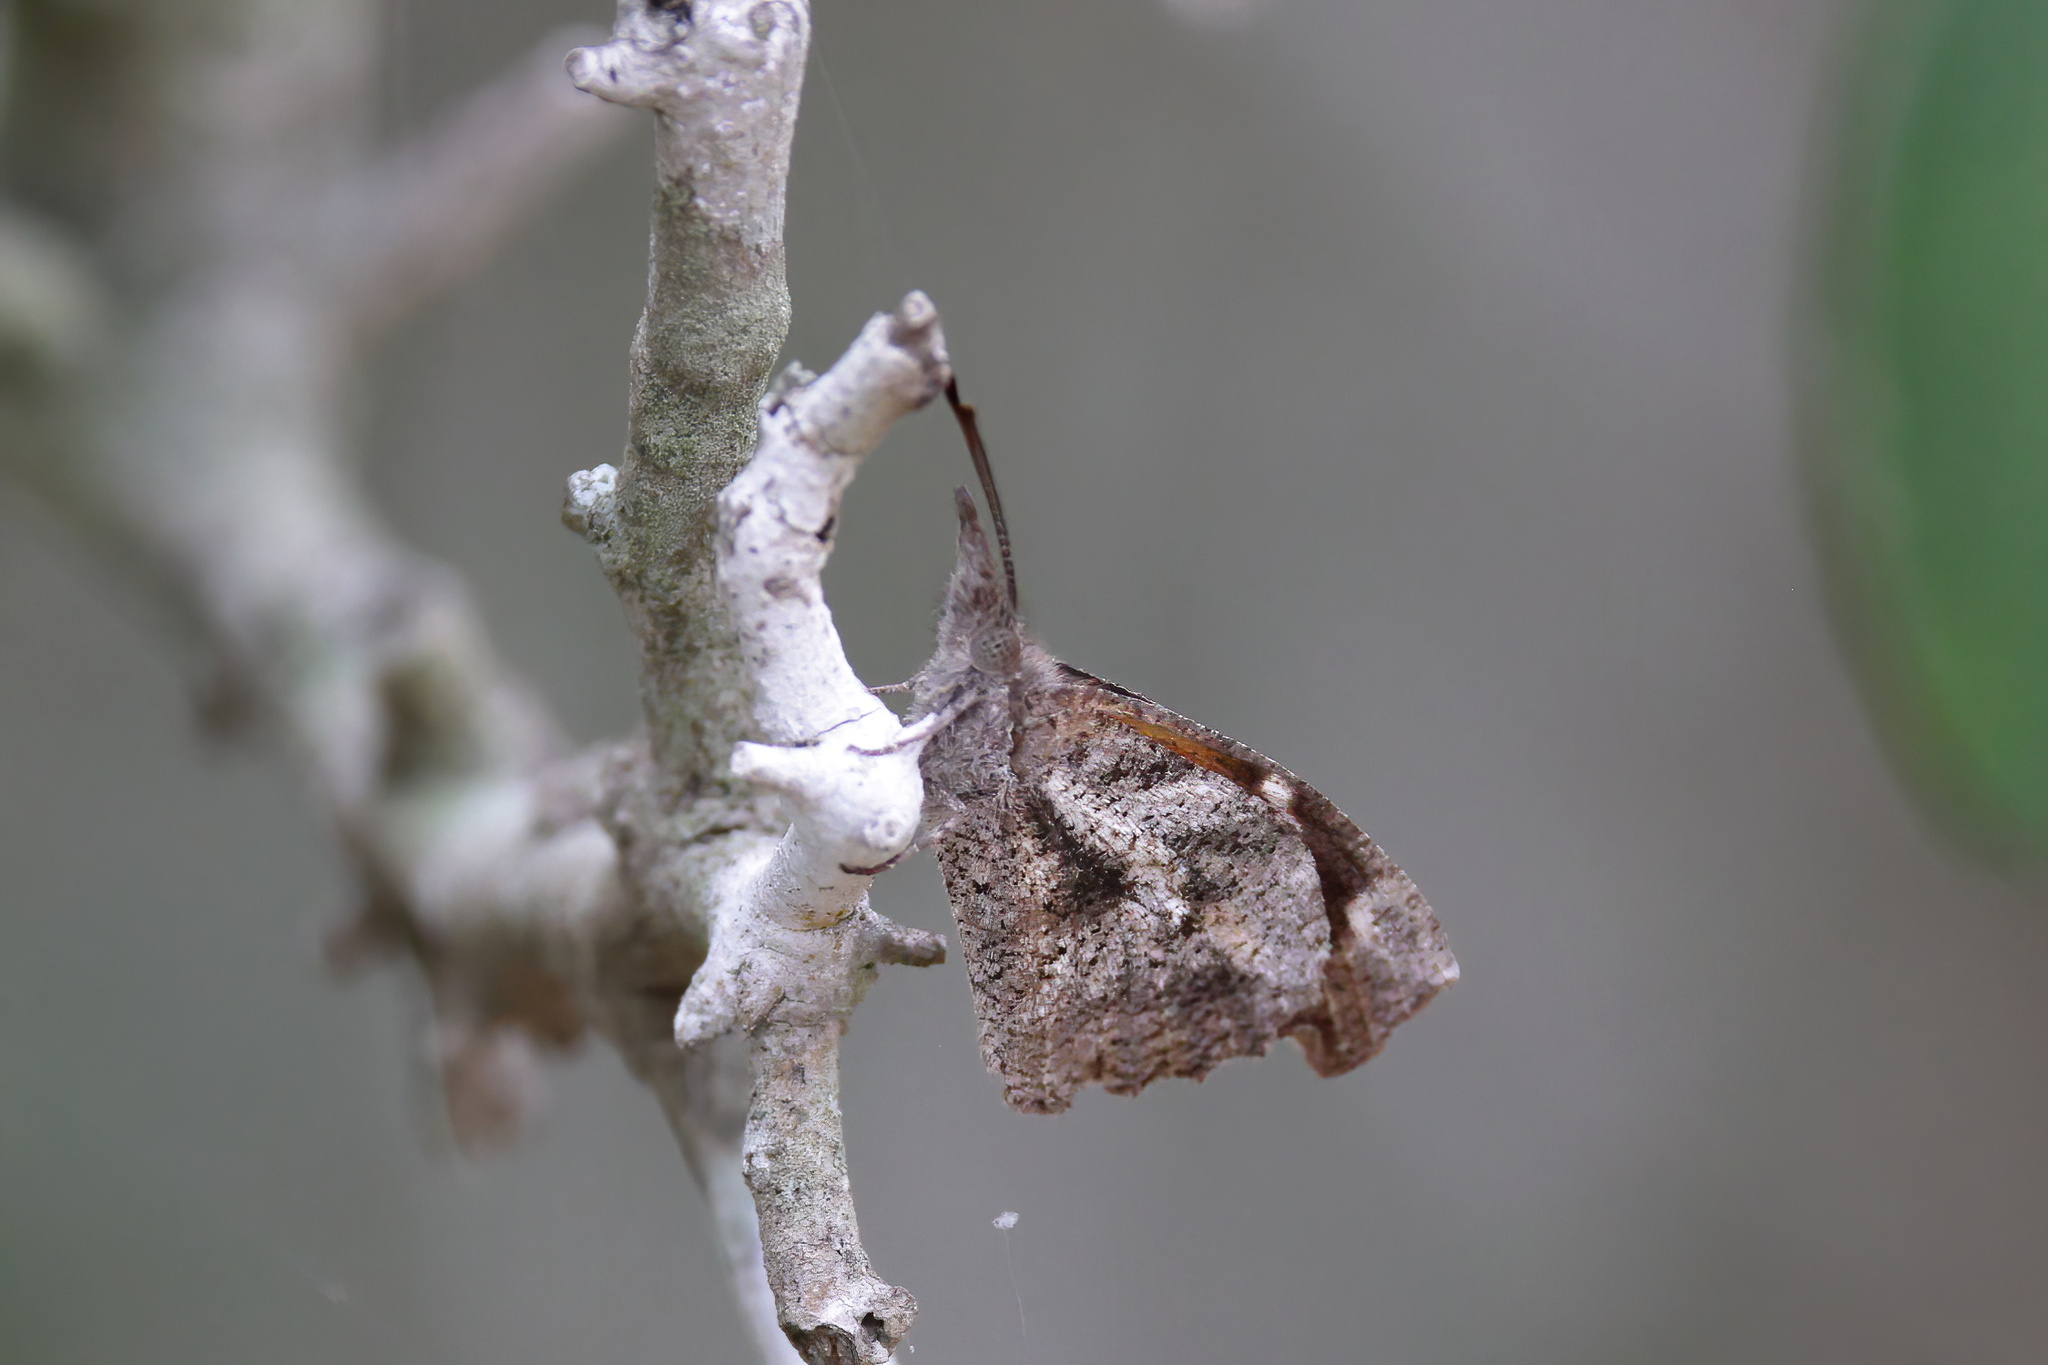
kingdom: Animalia
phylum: Arthropoda
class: Insecta
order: Lepidoptera
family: Nymphalidae
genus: Libytheana
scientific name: Libytheana carinenta
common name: American snout
